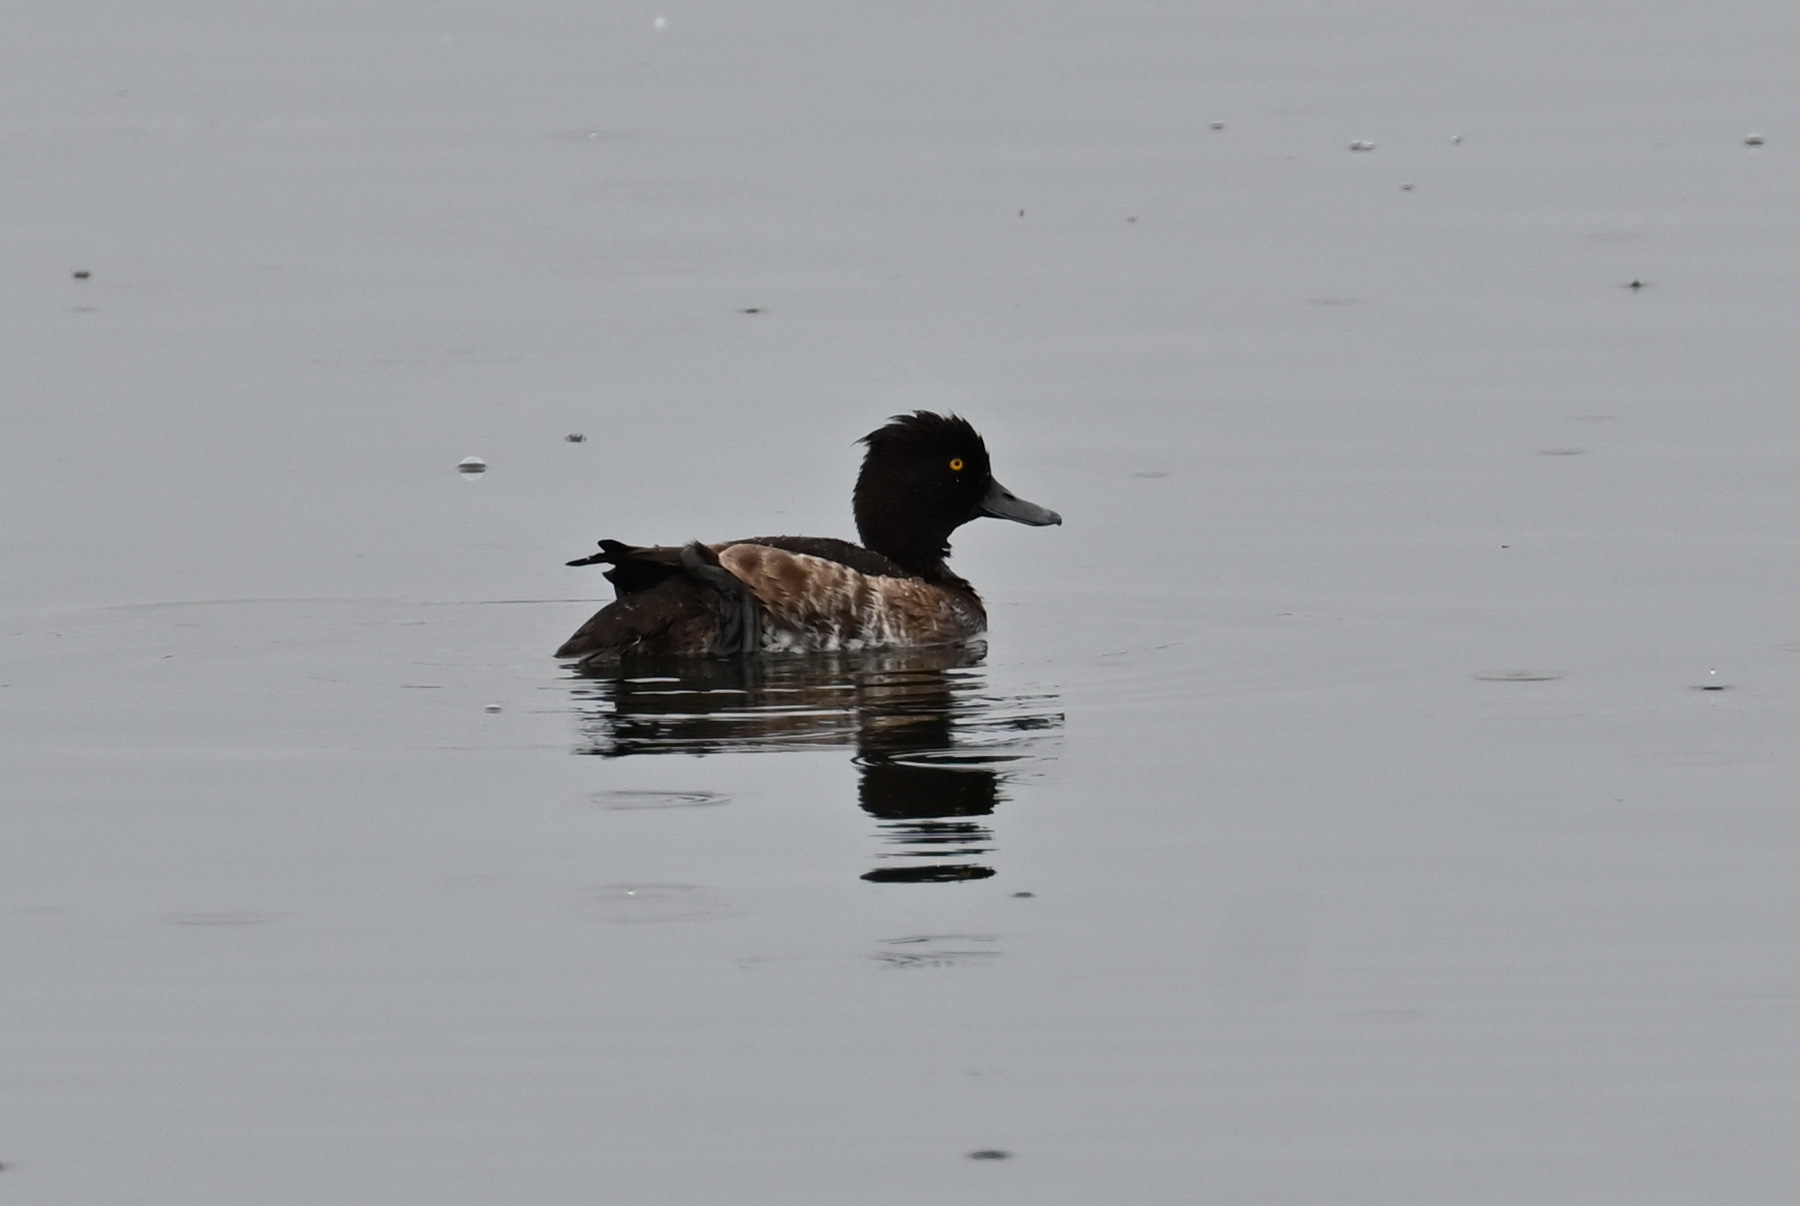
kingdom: Animalia
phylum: Chordata
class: Aves
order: Anseriformes
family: Anatidae
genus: Aythya
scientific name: Aythya fuligula
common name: Tufted duck
